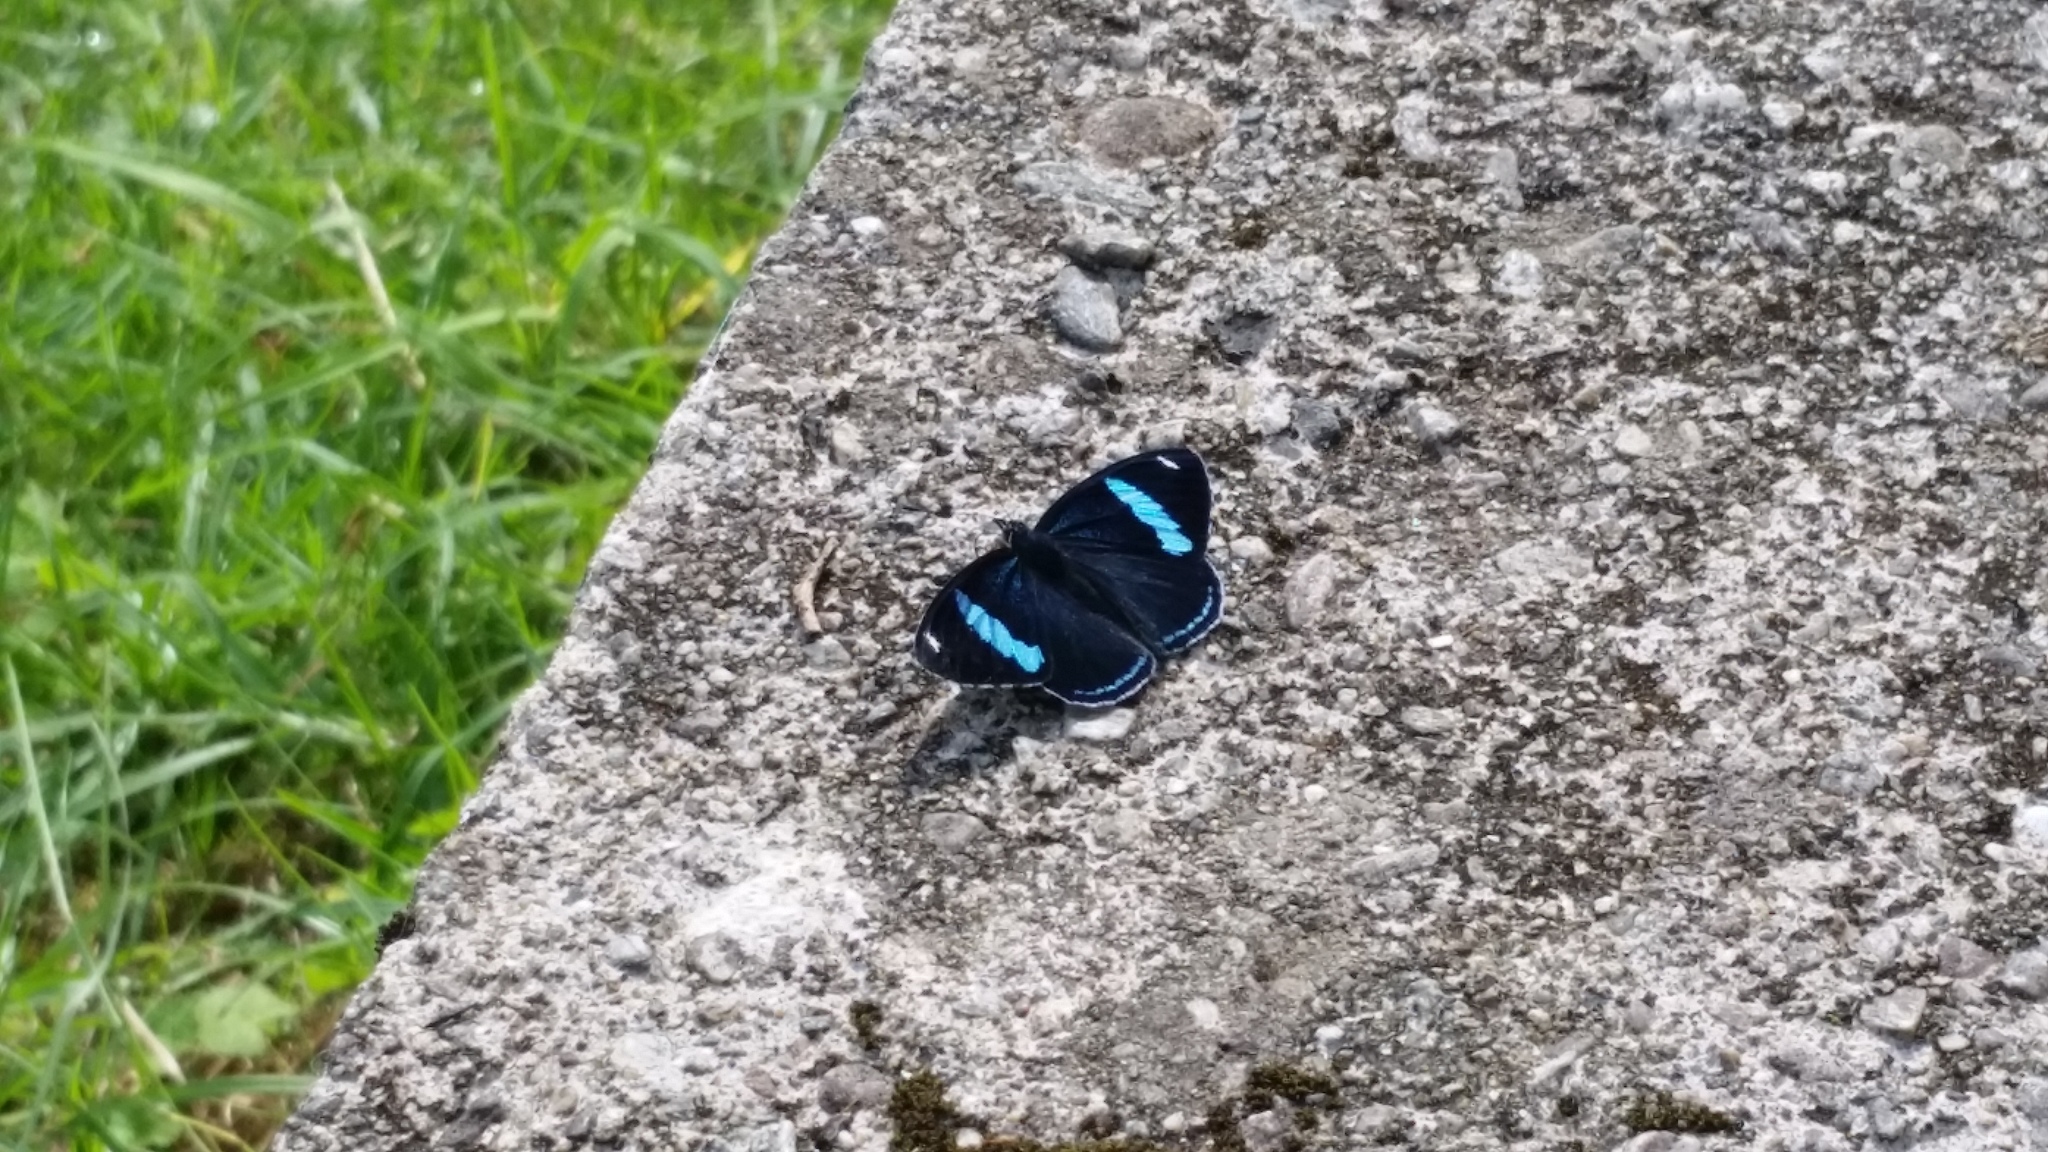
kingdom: Animalia
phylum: Arthropoda
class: Insecta
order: Lepidoptera
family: Nymphalidae
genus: Diaethria
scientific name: Diaethria anna
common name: Anna’s eighty-eight
